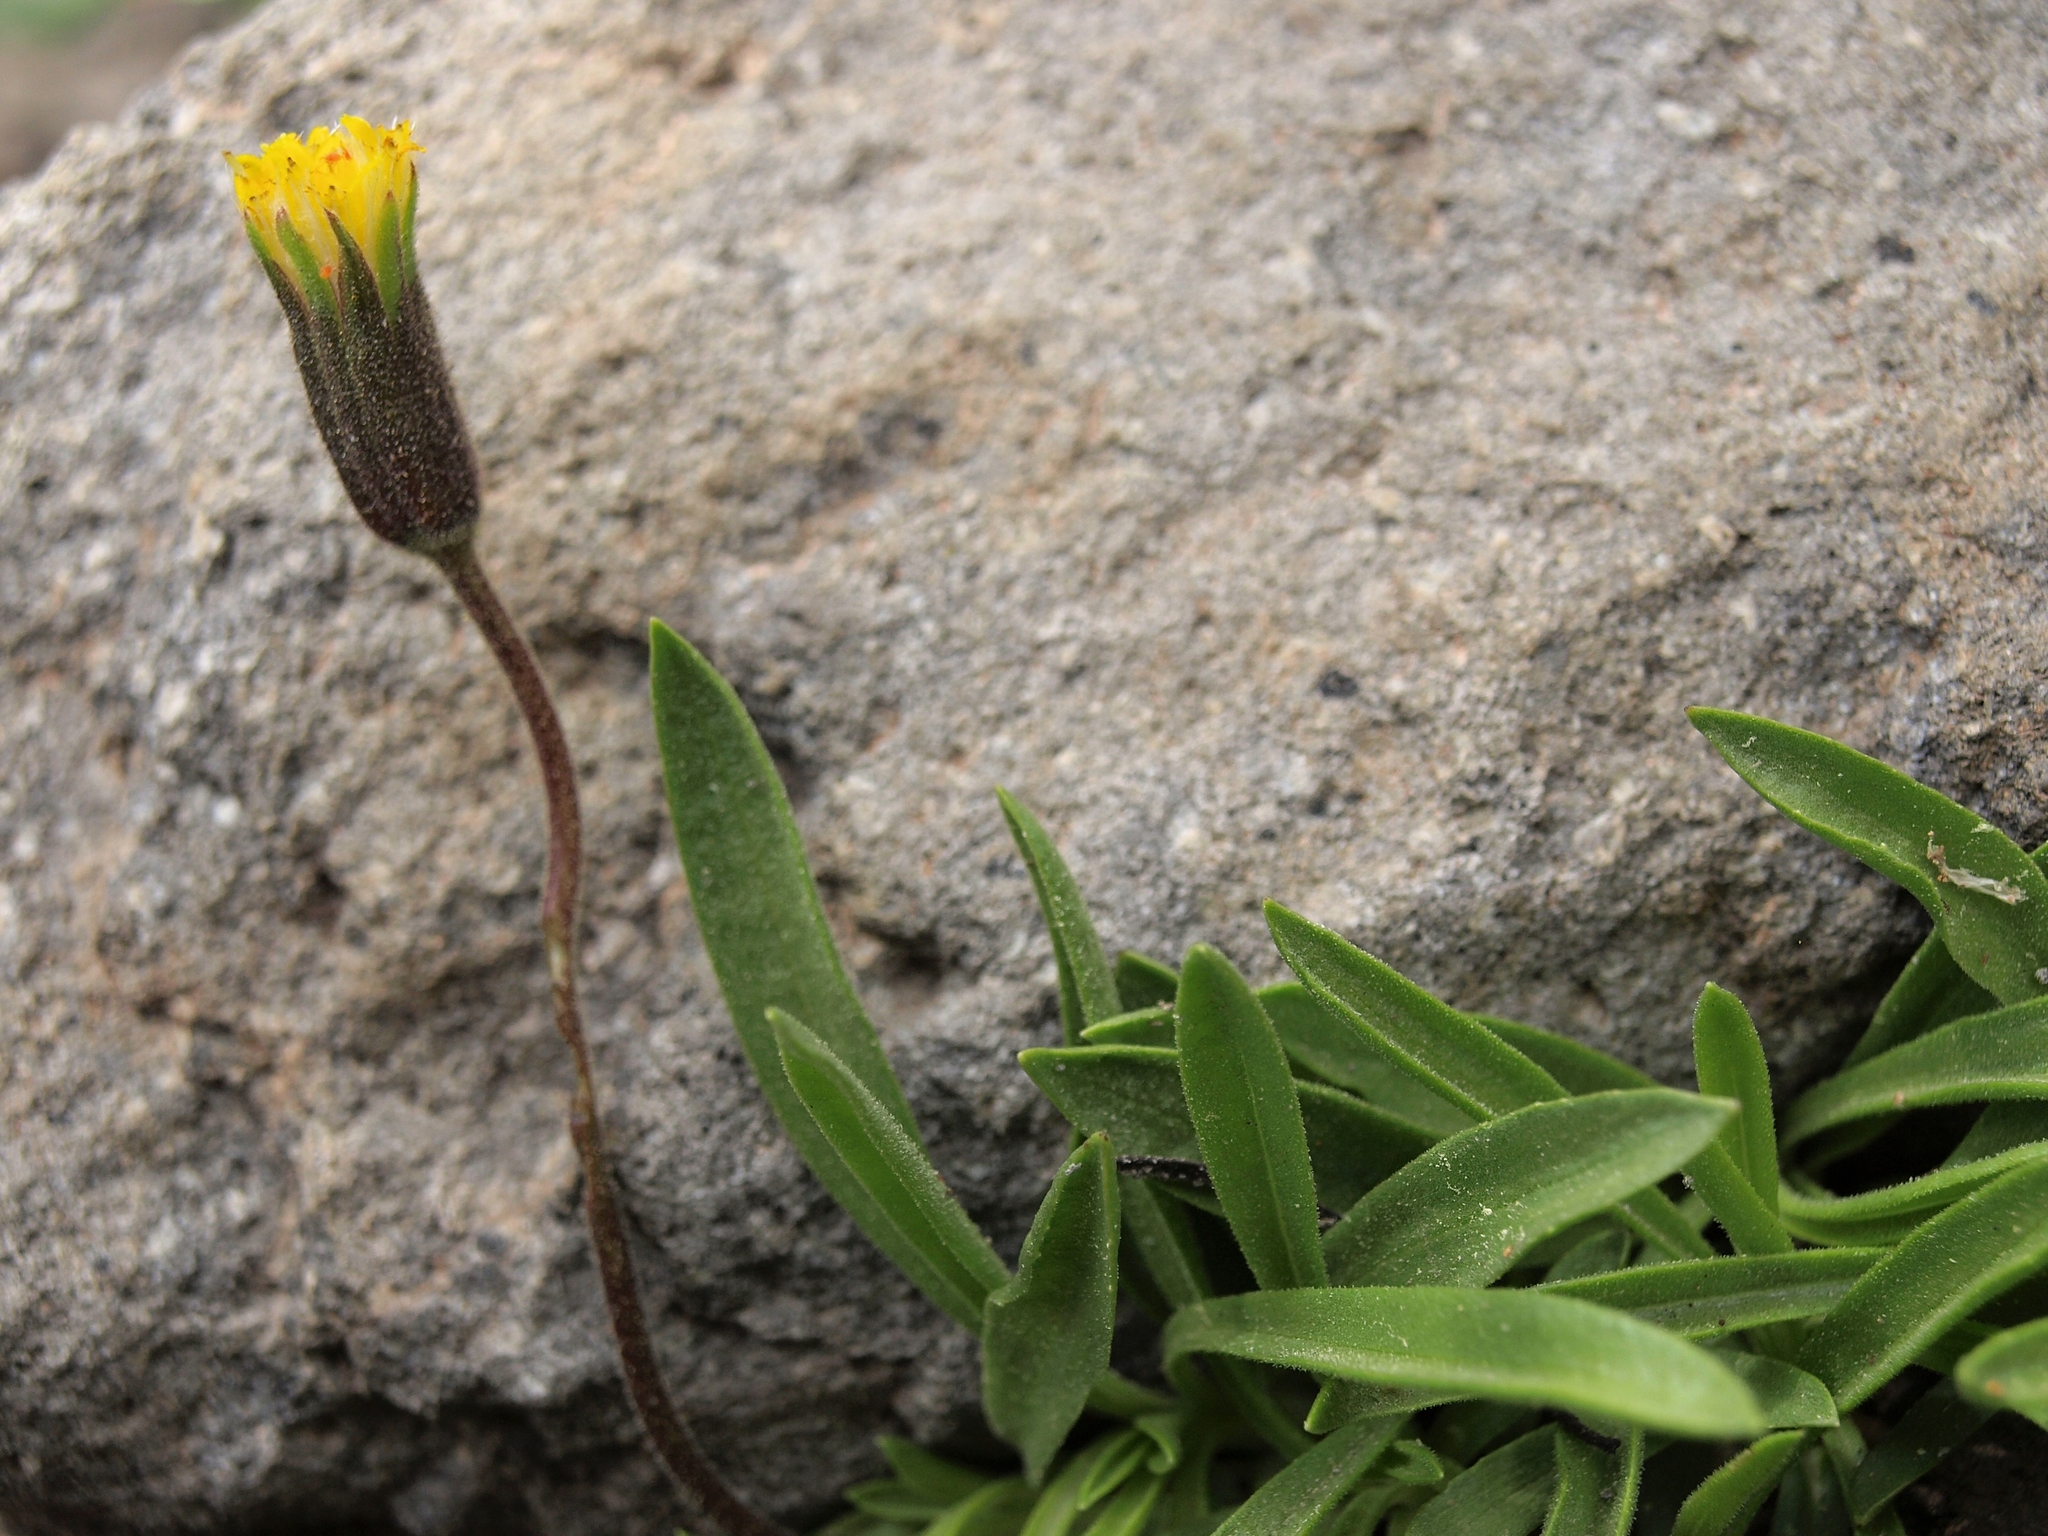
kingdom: Plantae
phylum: Tracheophyta
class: Magnoliopsida
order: Asterales
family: Asteraceae
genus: Raillardella
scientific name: Raillardella scaposa
